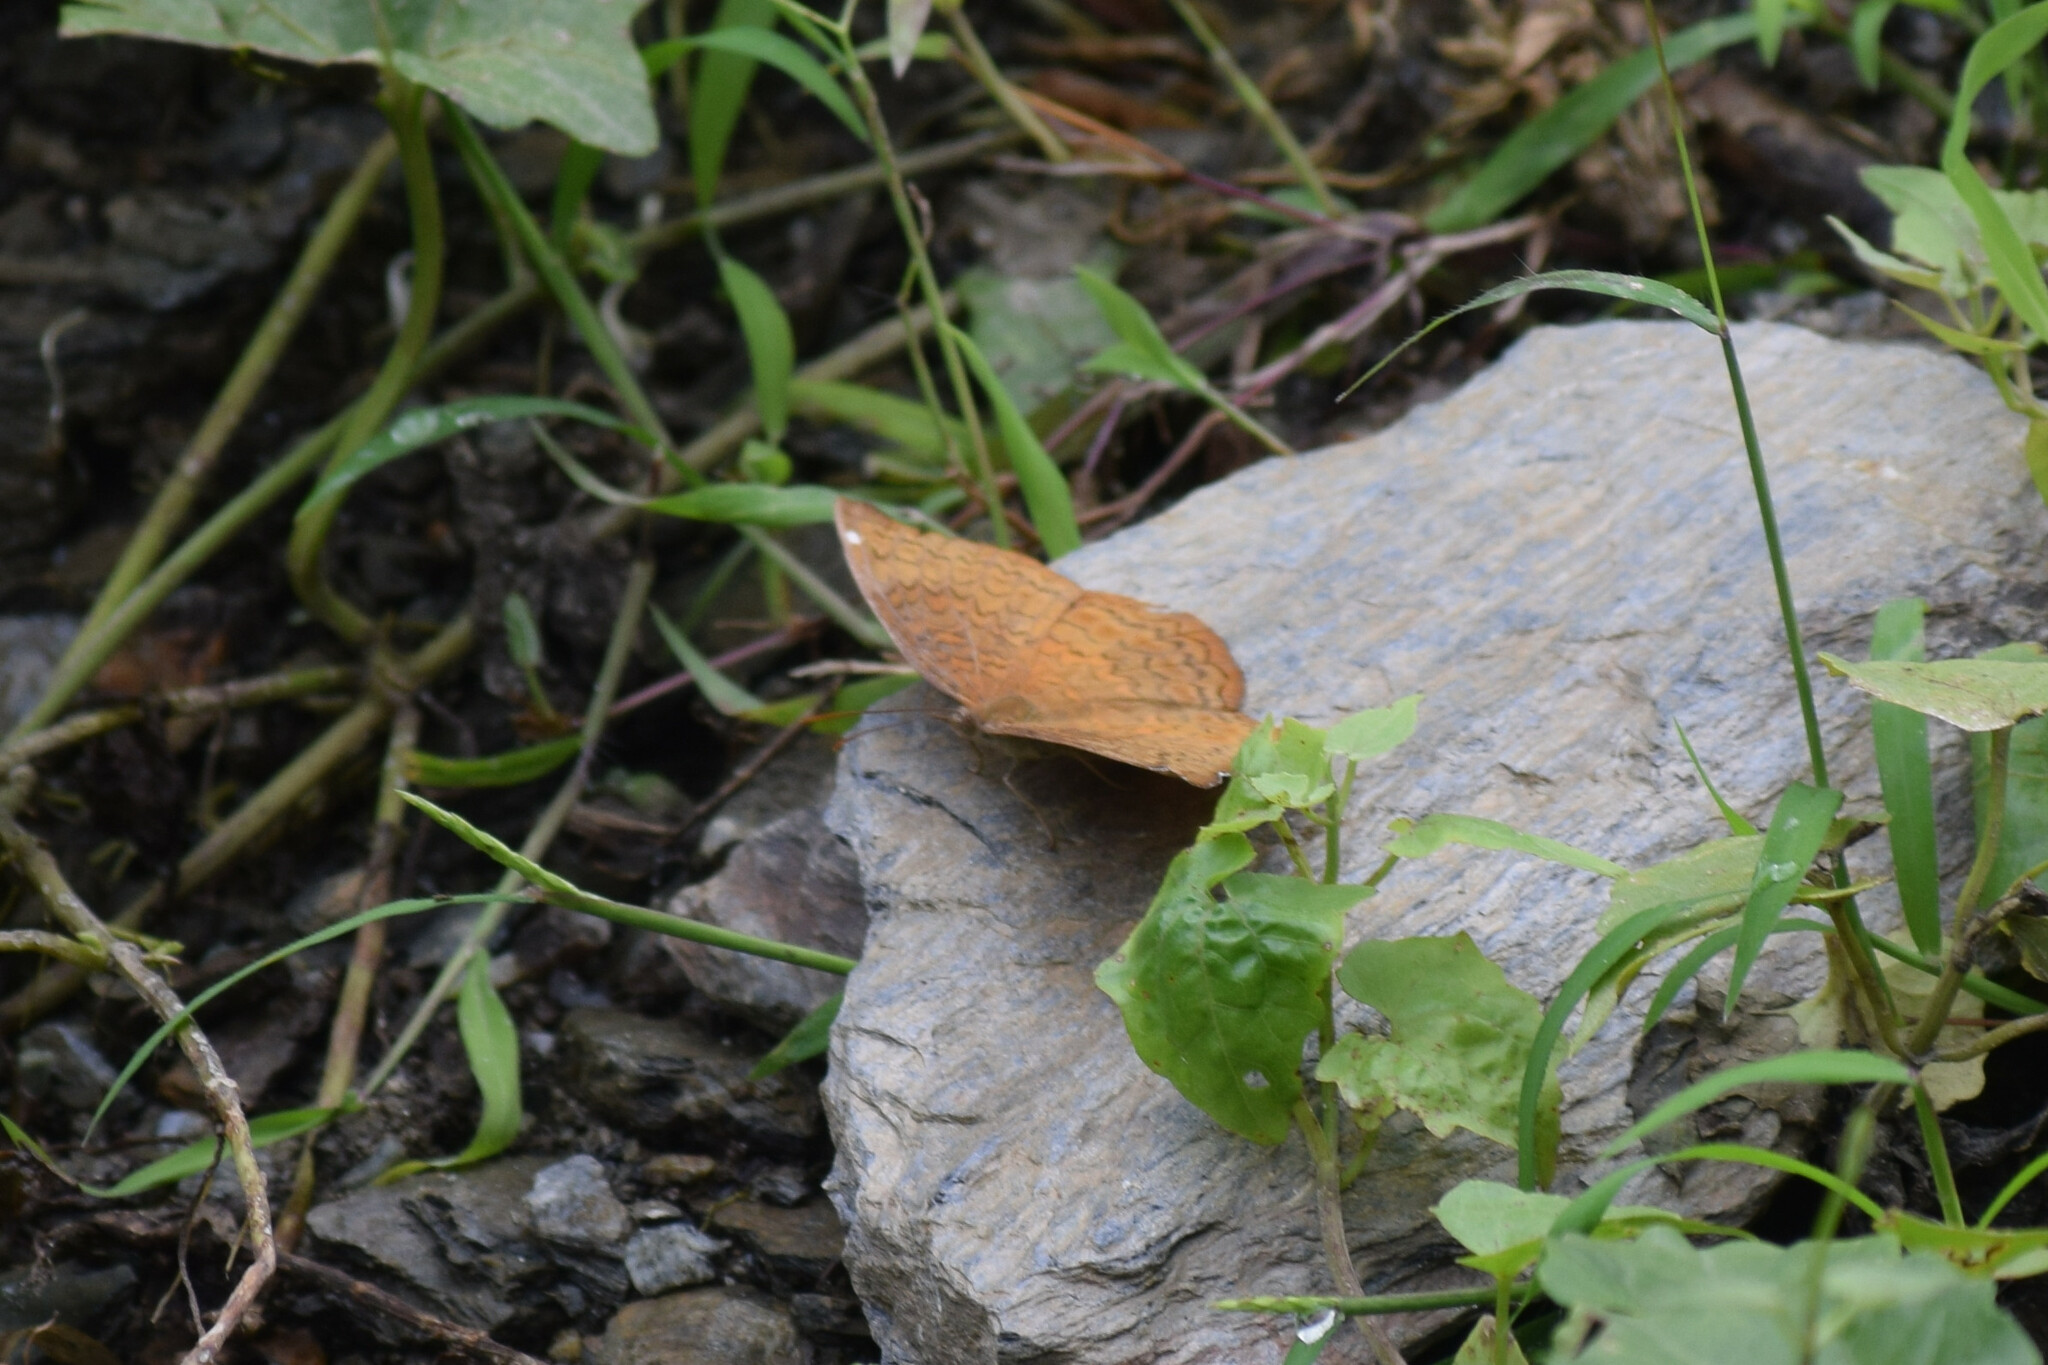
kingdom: Animalia
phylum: Arthropoda
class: Insecta
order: Lepidoptera
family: Nymphalidae
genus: Ariadne
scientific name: Ariadne merione
